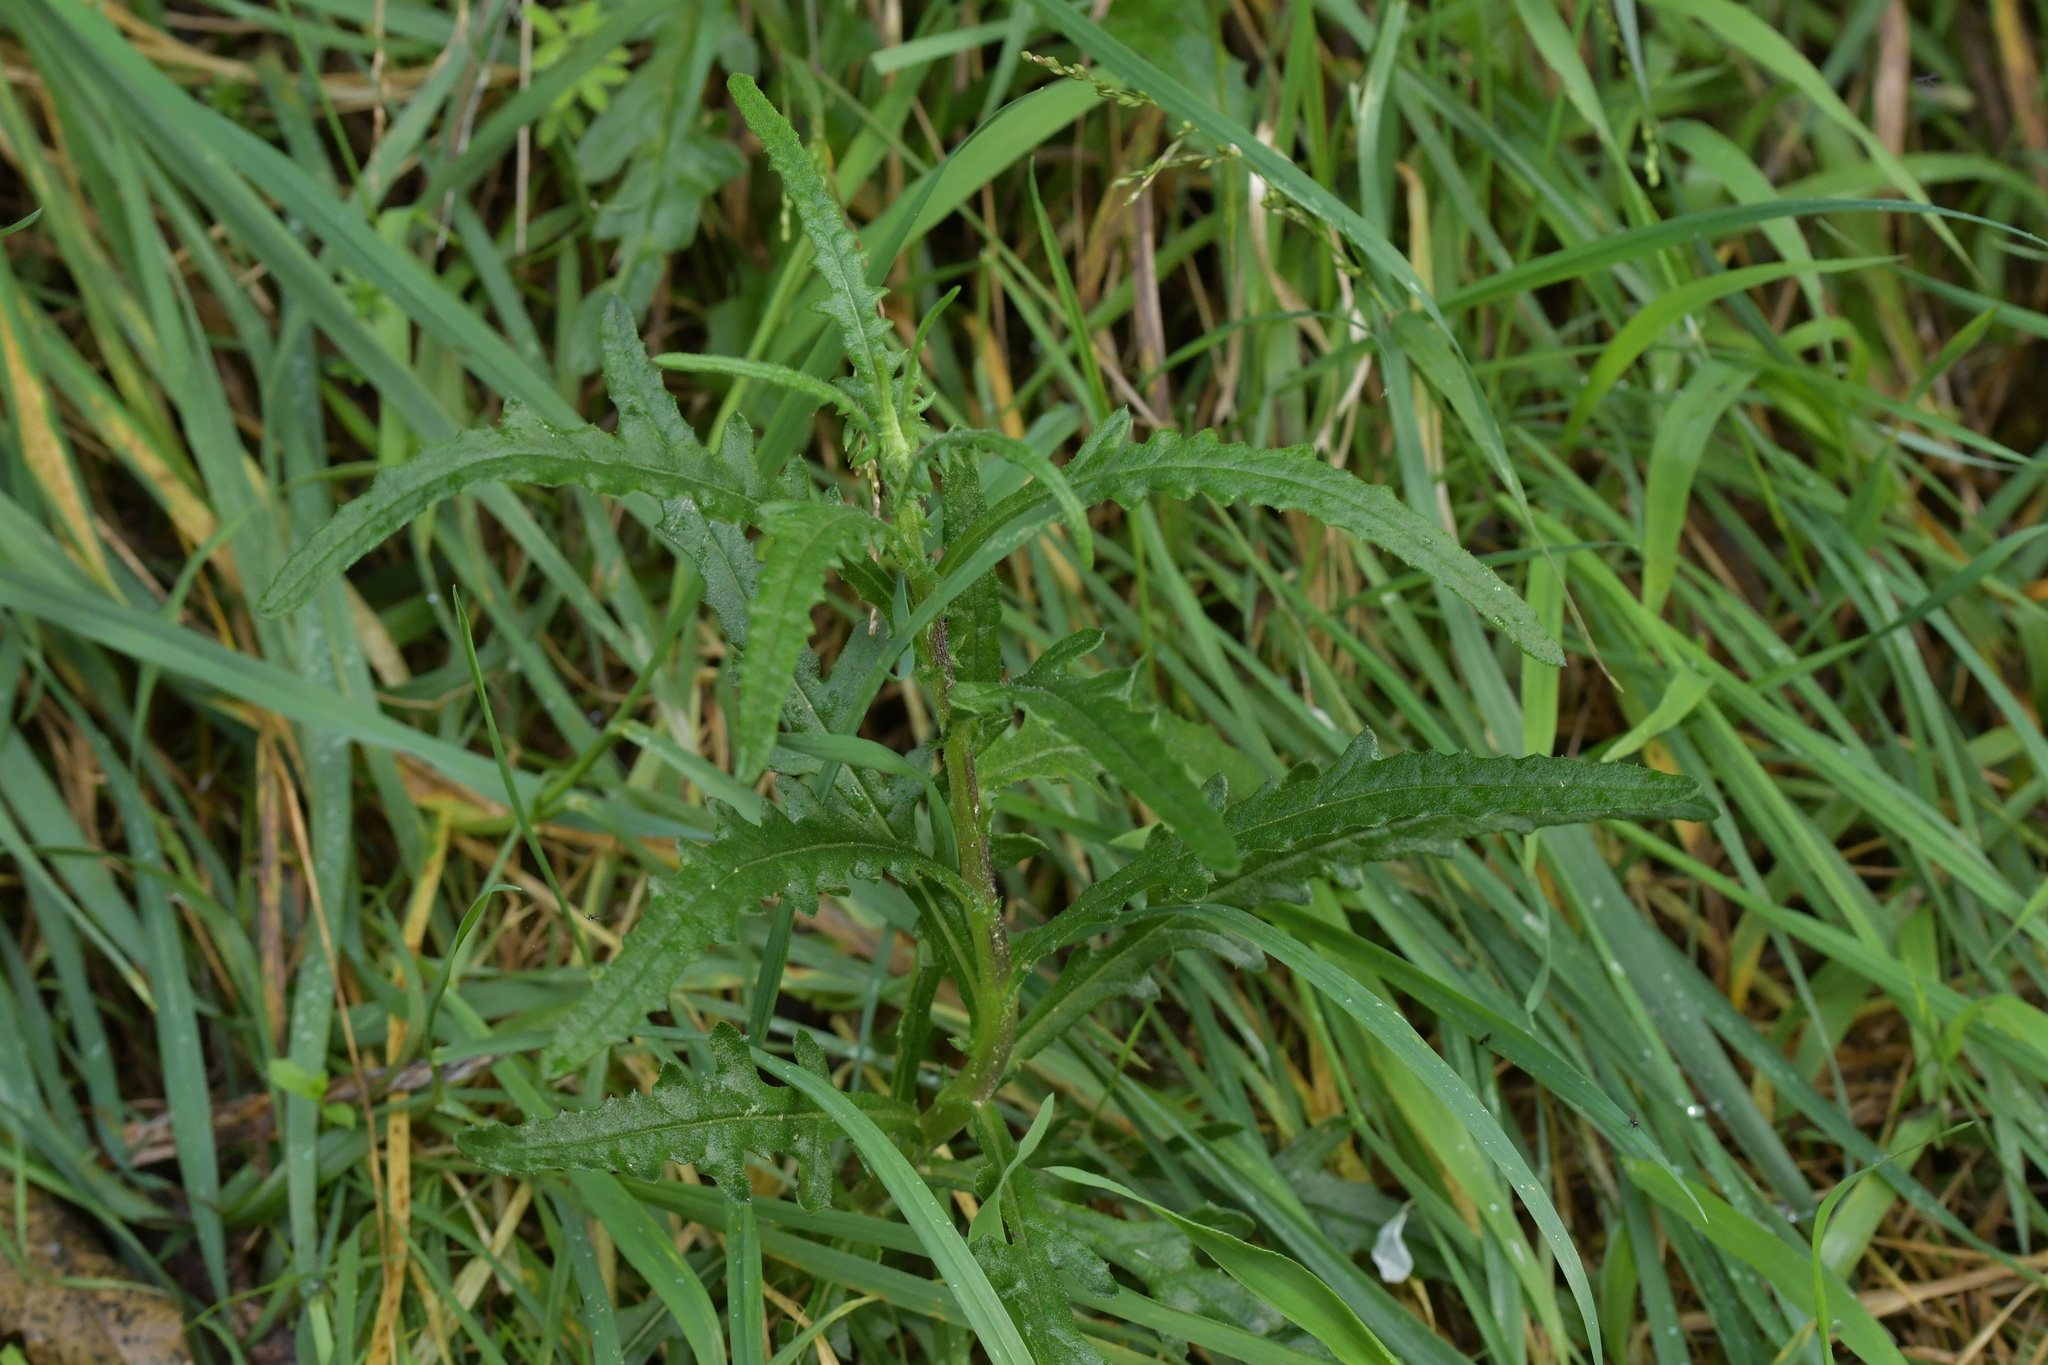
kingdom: Plantae
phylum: Tracheophyta
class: Magnoliopsida
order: Asterales
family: Asteraceae
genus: Senecio
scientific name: Senecio hispidulus
